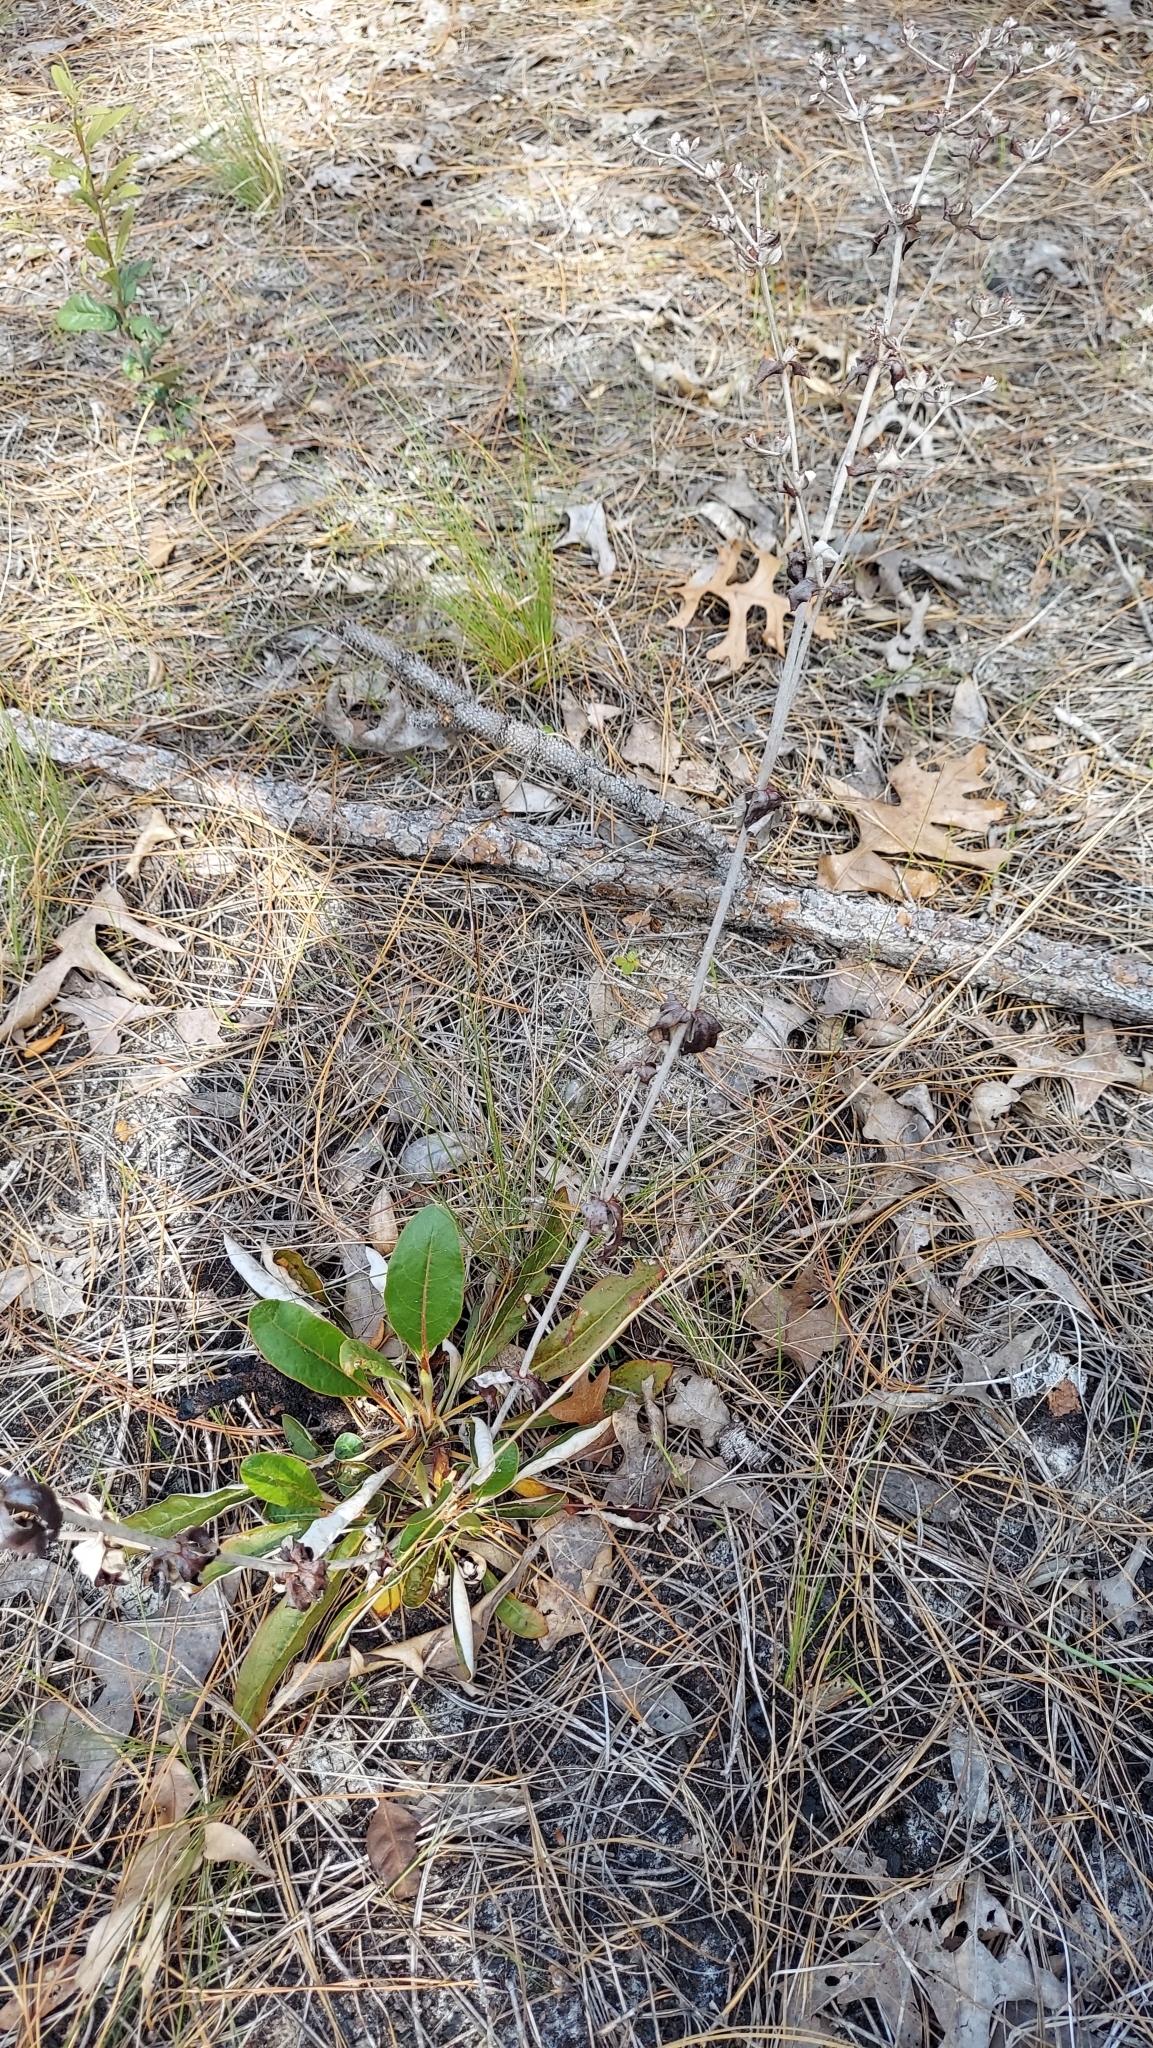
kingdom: Plantae
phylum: Tracheophyta
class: Magnoliopsida
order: Caryophyllales
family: Polygonaceae
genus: Eriogonum
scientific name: Eriogonum tomentosum
